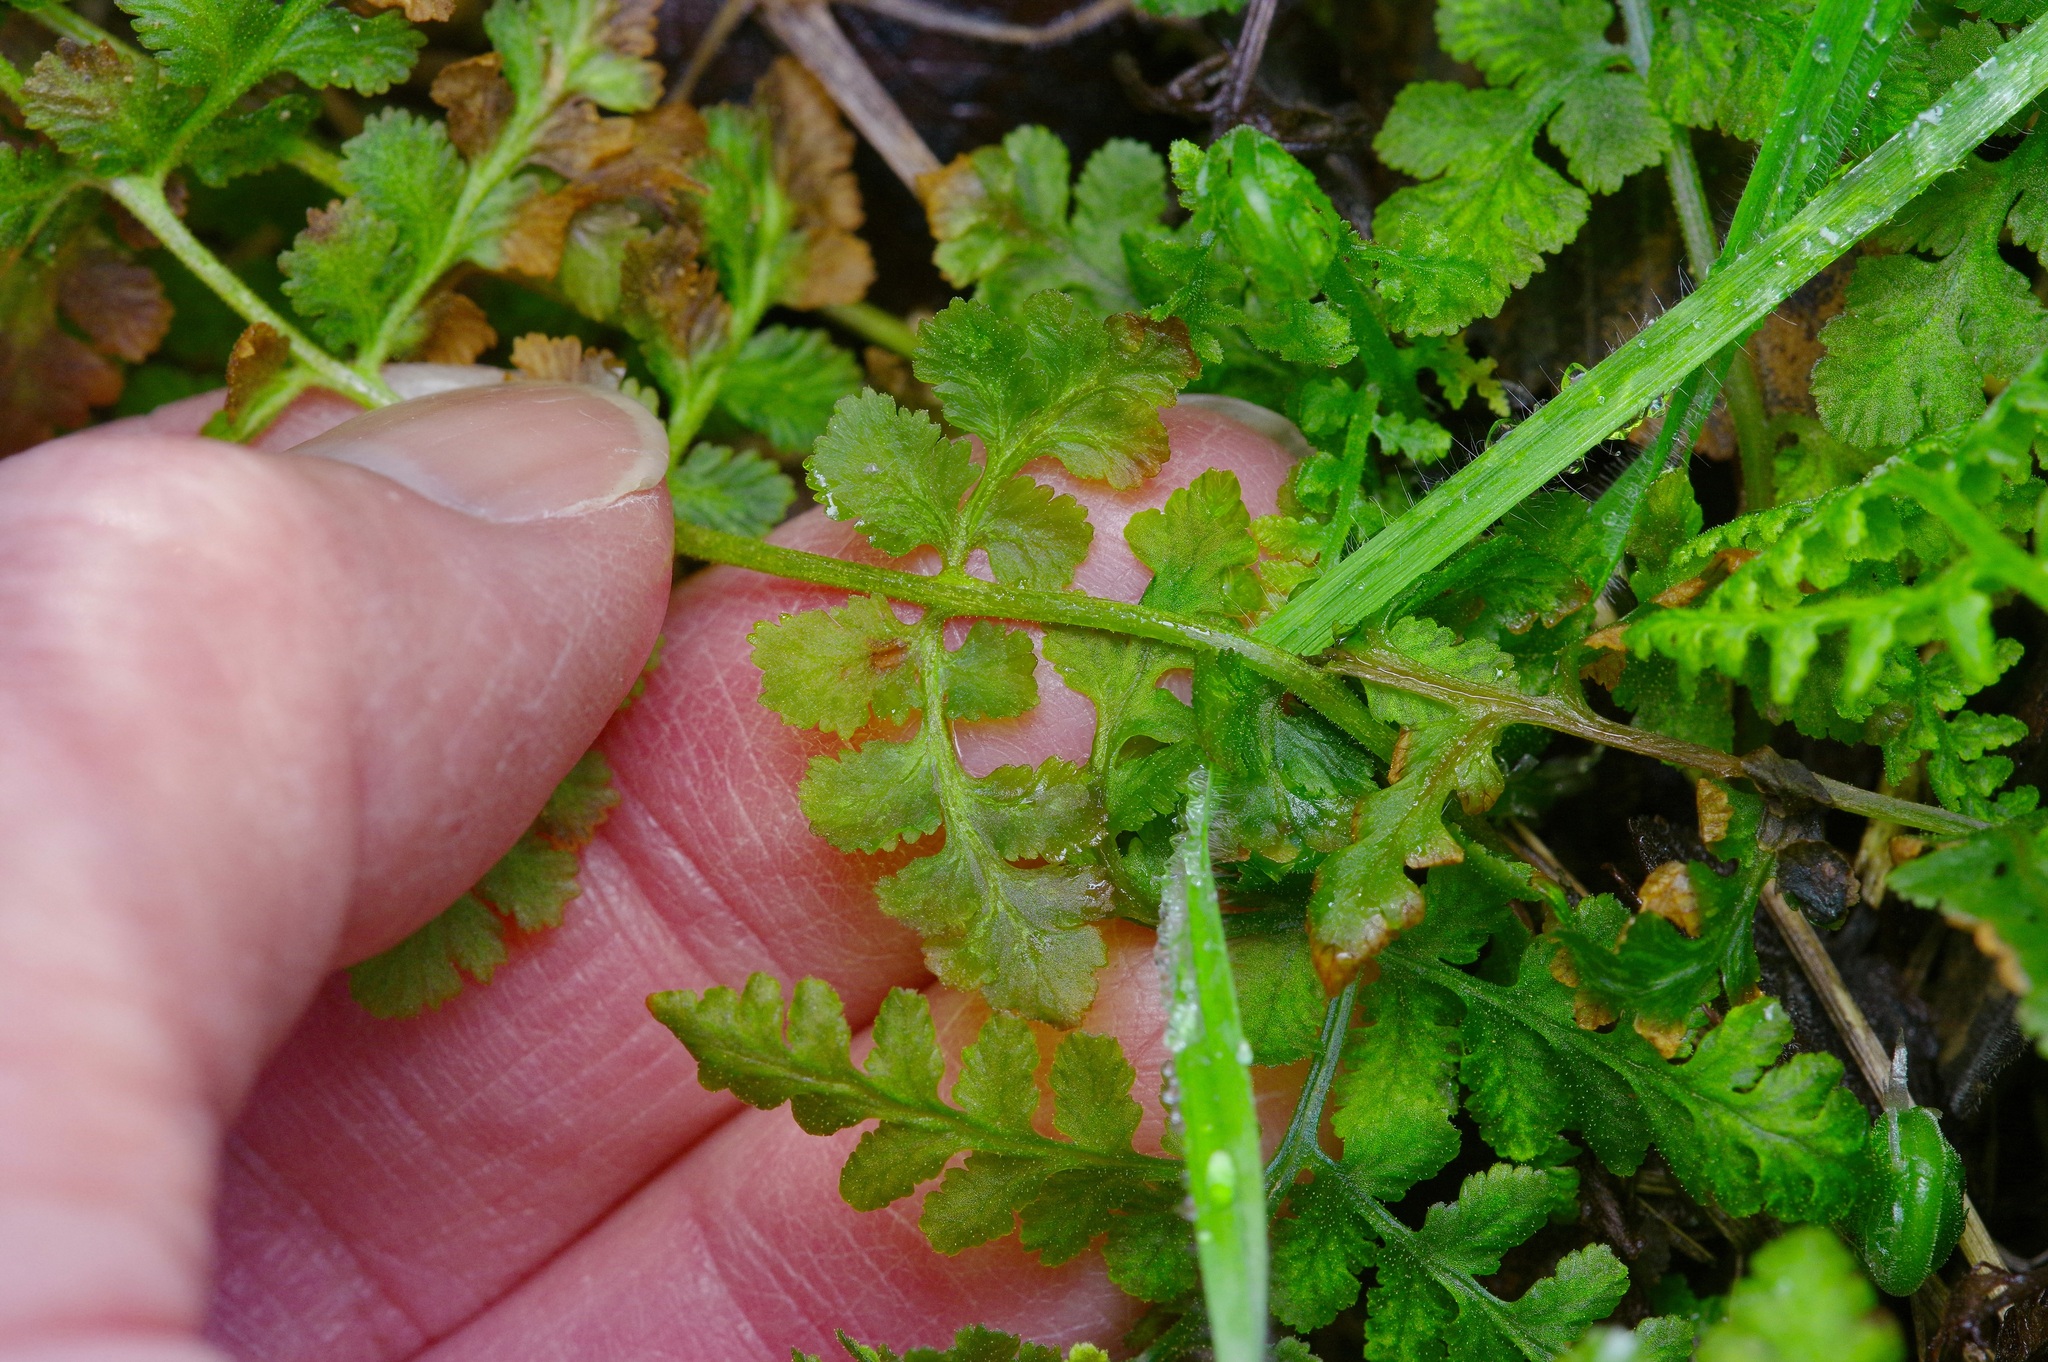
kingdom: Plantae
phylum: Tracheophyta
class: Polypodiopsida
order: Polypodiales
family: Woodsiaceae
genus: Physematium
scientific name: Physematium obtusum
